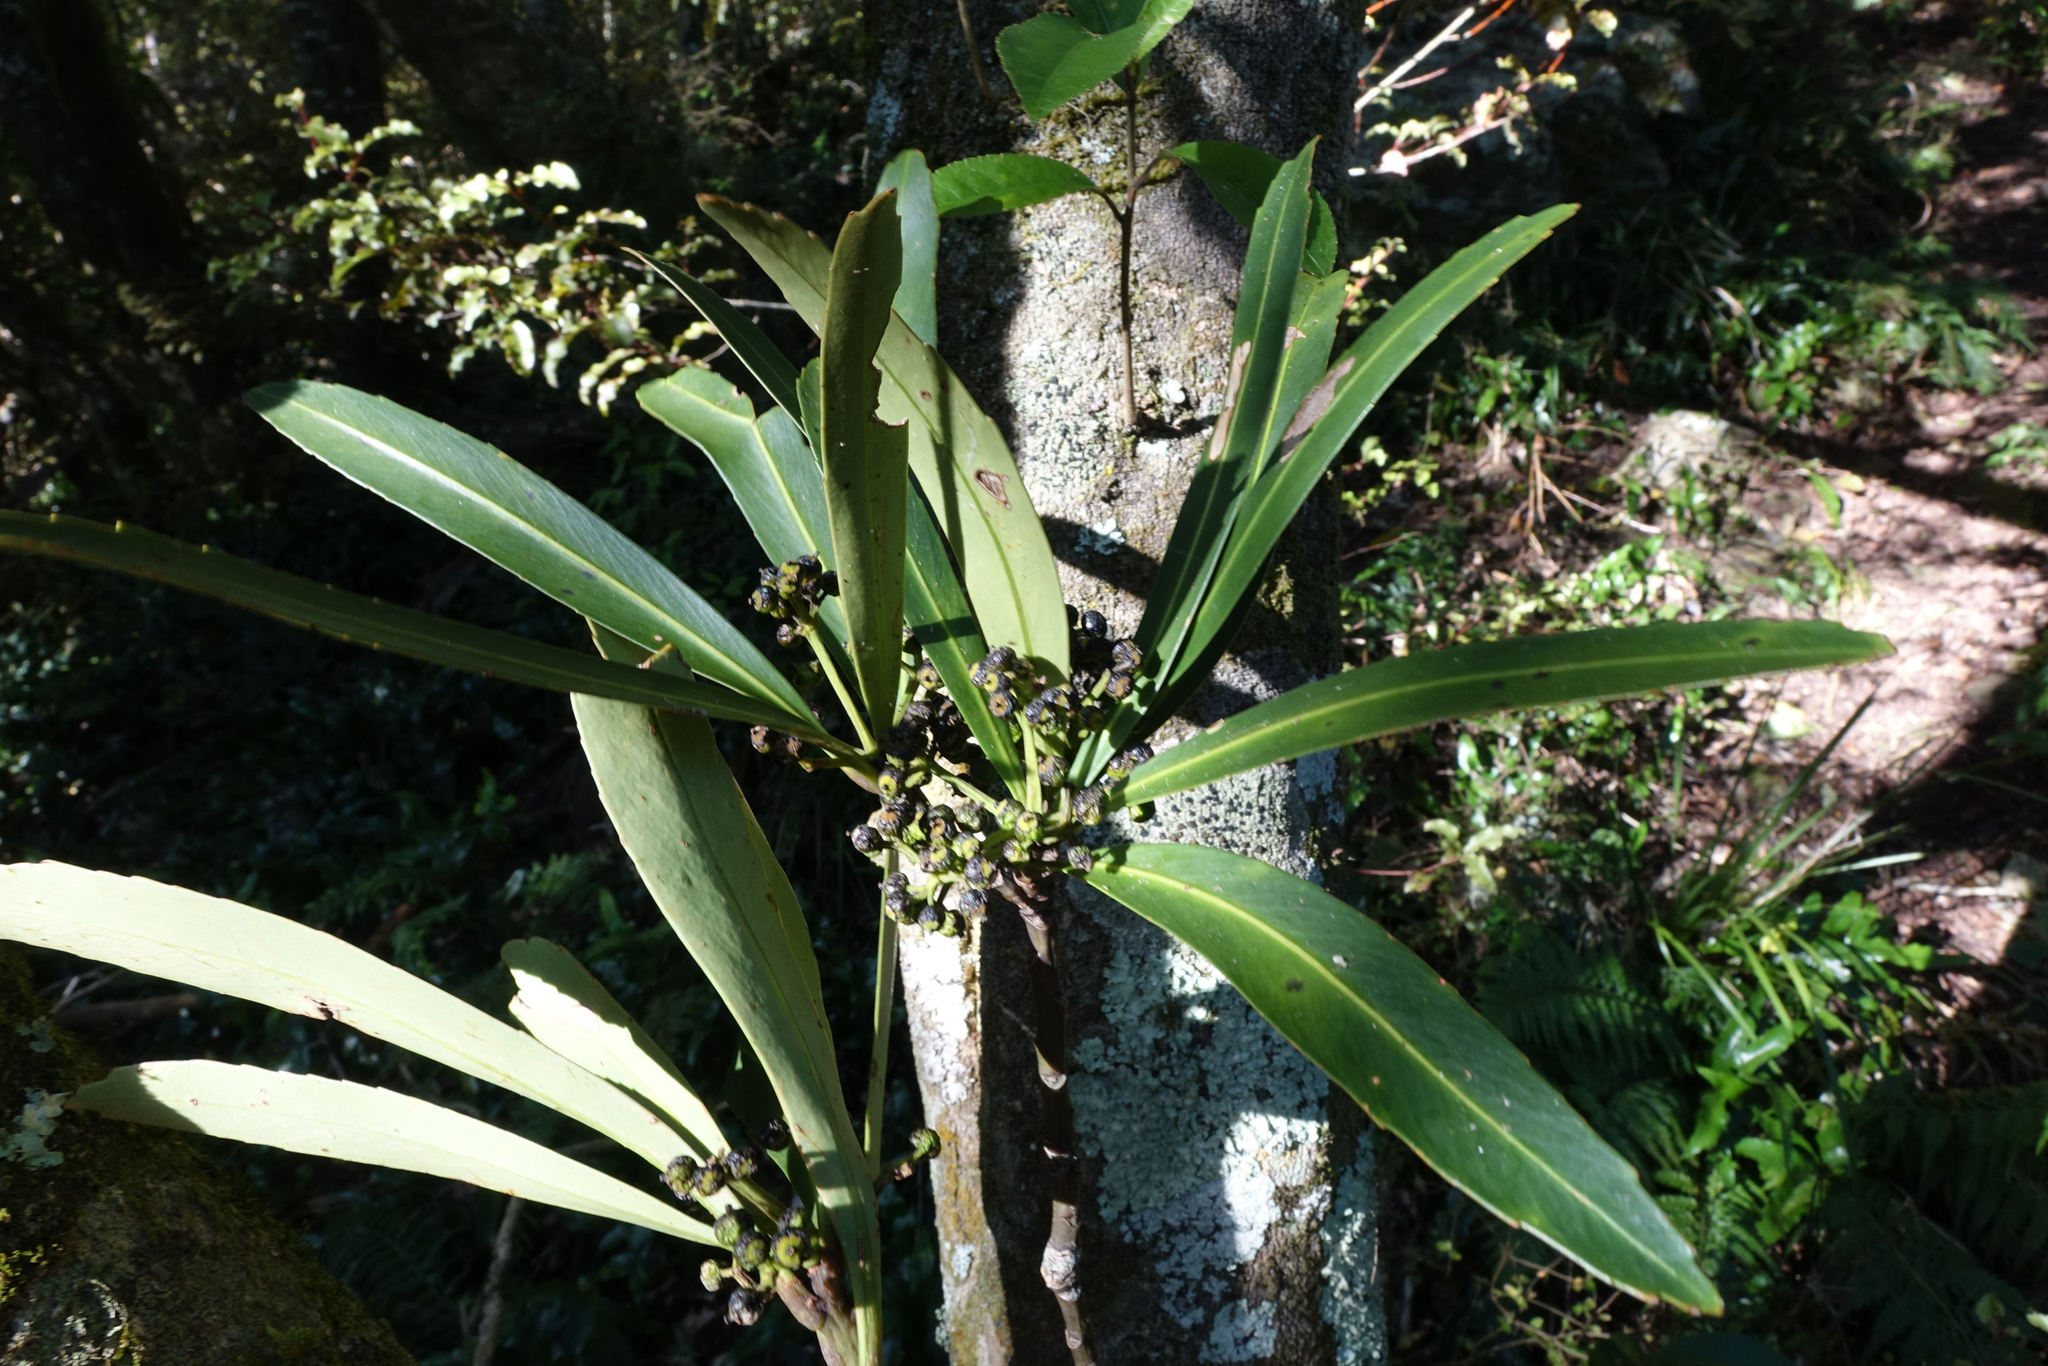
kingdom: Plantae
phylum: Tracheophyta
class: Magnoliopsida
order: Apiales
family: Araliaceae
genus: Pseudopanax
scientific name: Pseudopanax crassifolius
